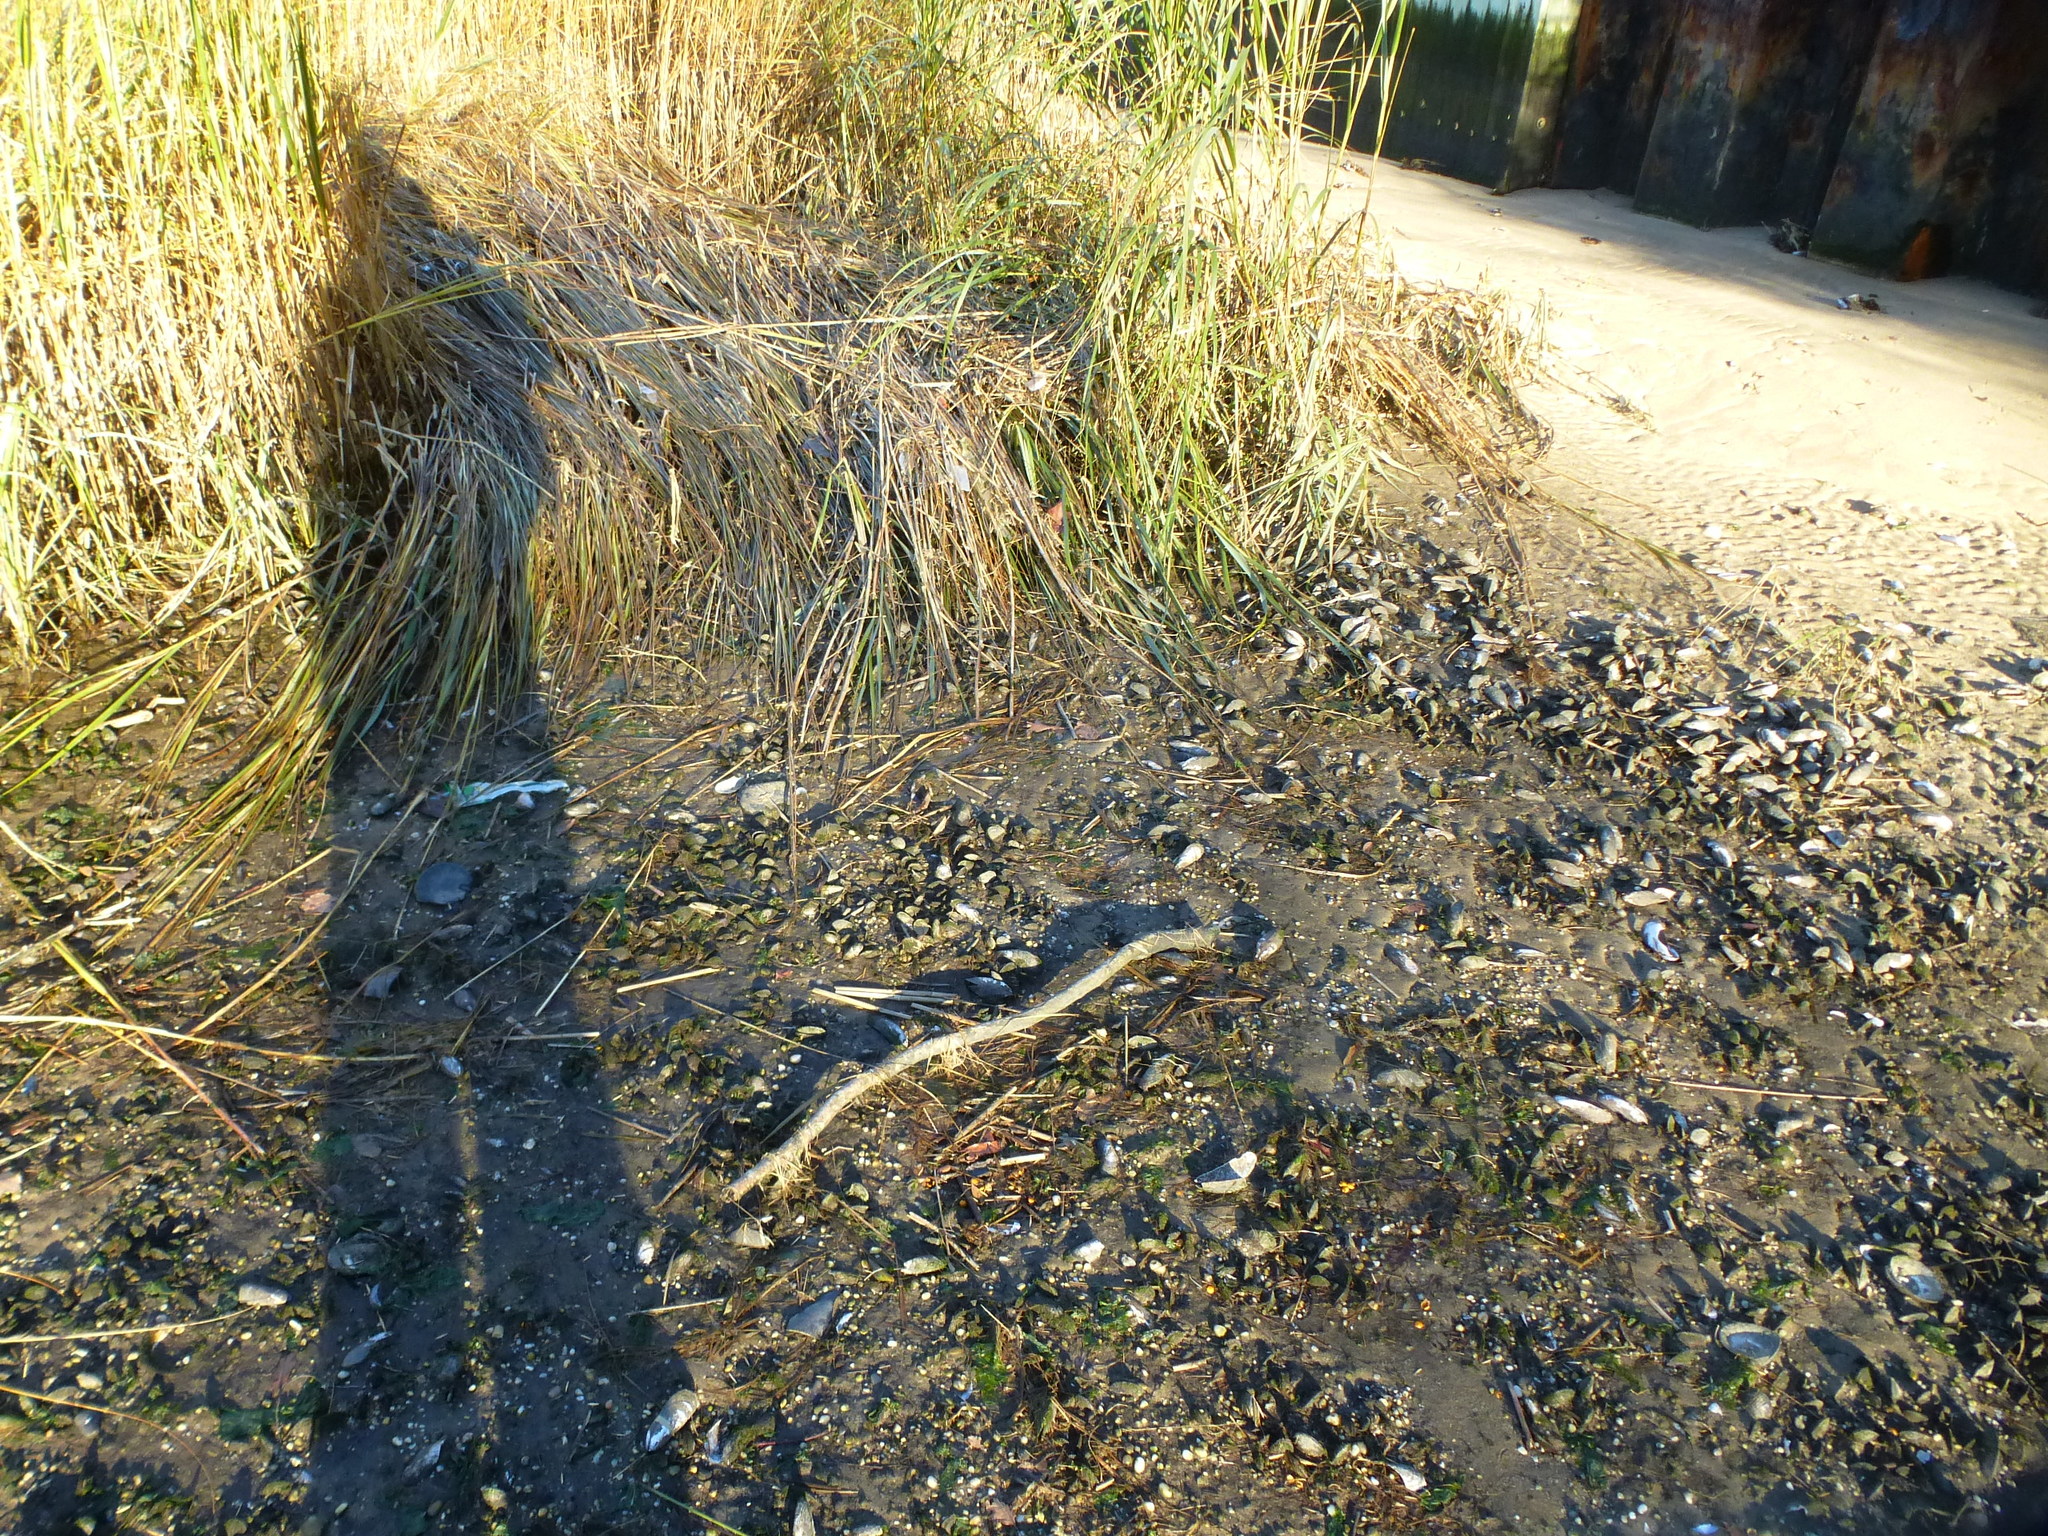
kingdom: Animalia
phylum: Mollusca
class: Bivalvia
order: Mytilida
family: Mytilidae
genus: Geukensia
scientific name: Geukensia demissa
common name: Ribbed mussel
